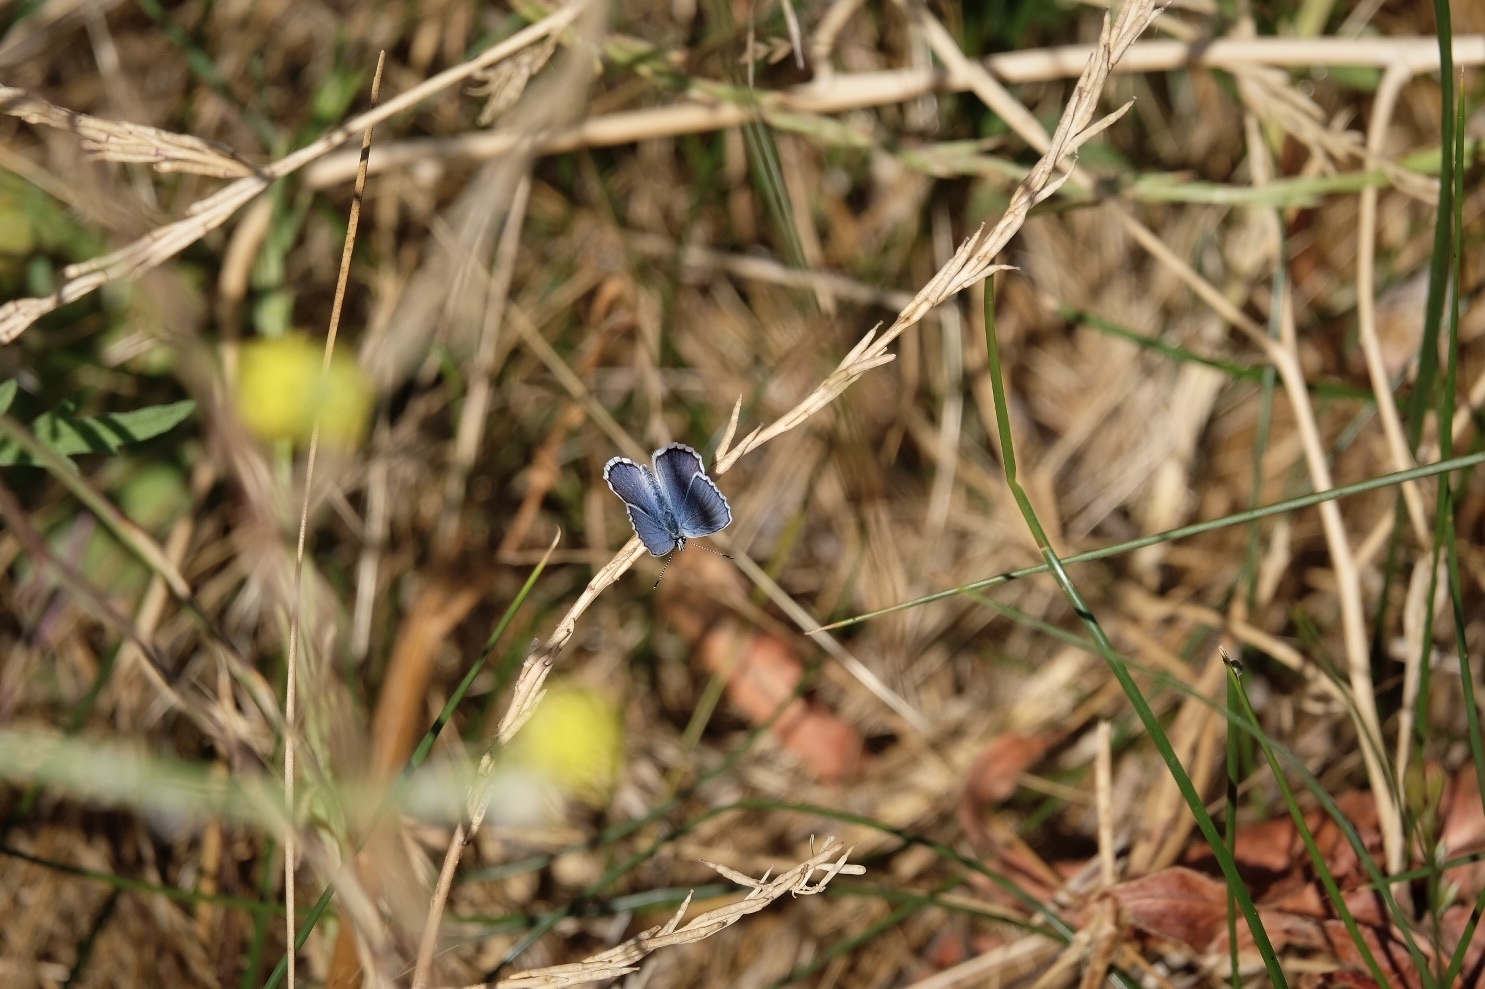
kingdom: Animalia
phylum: Arthropoda
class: Insecta
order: Lepidoptera
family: Lycaenidae
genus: Lycaeides
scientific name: Lycaeides melissa
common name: Melissa blue
